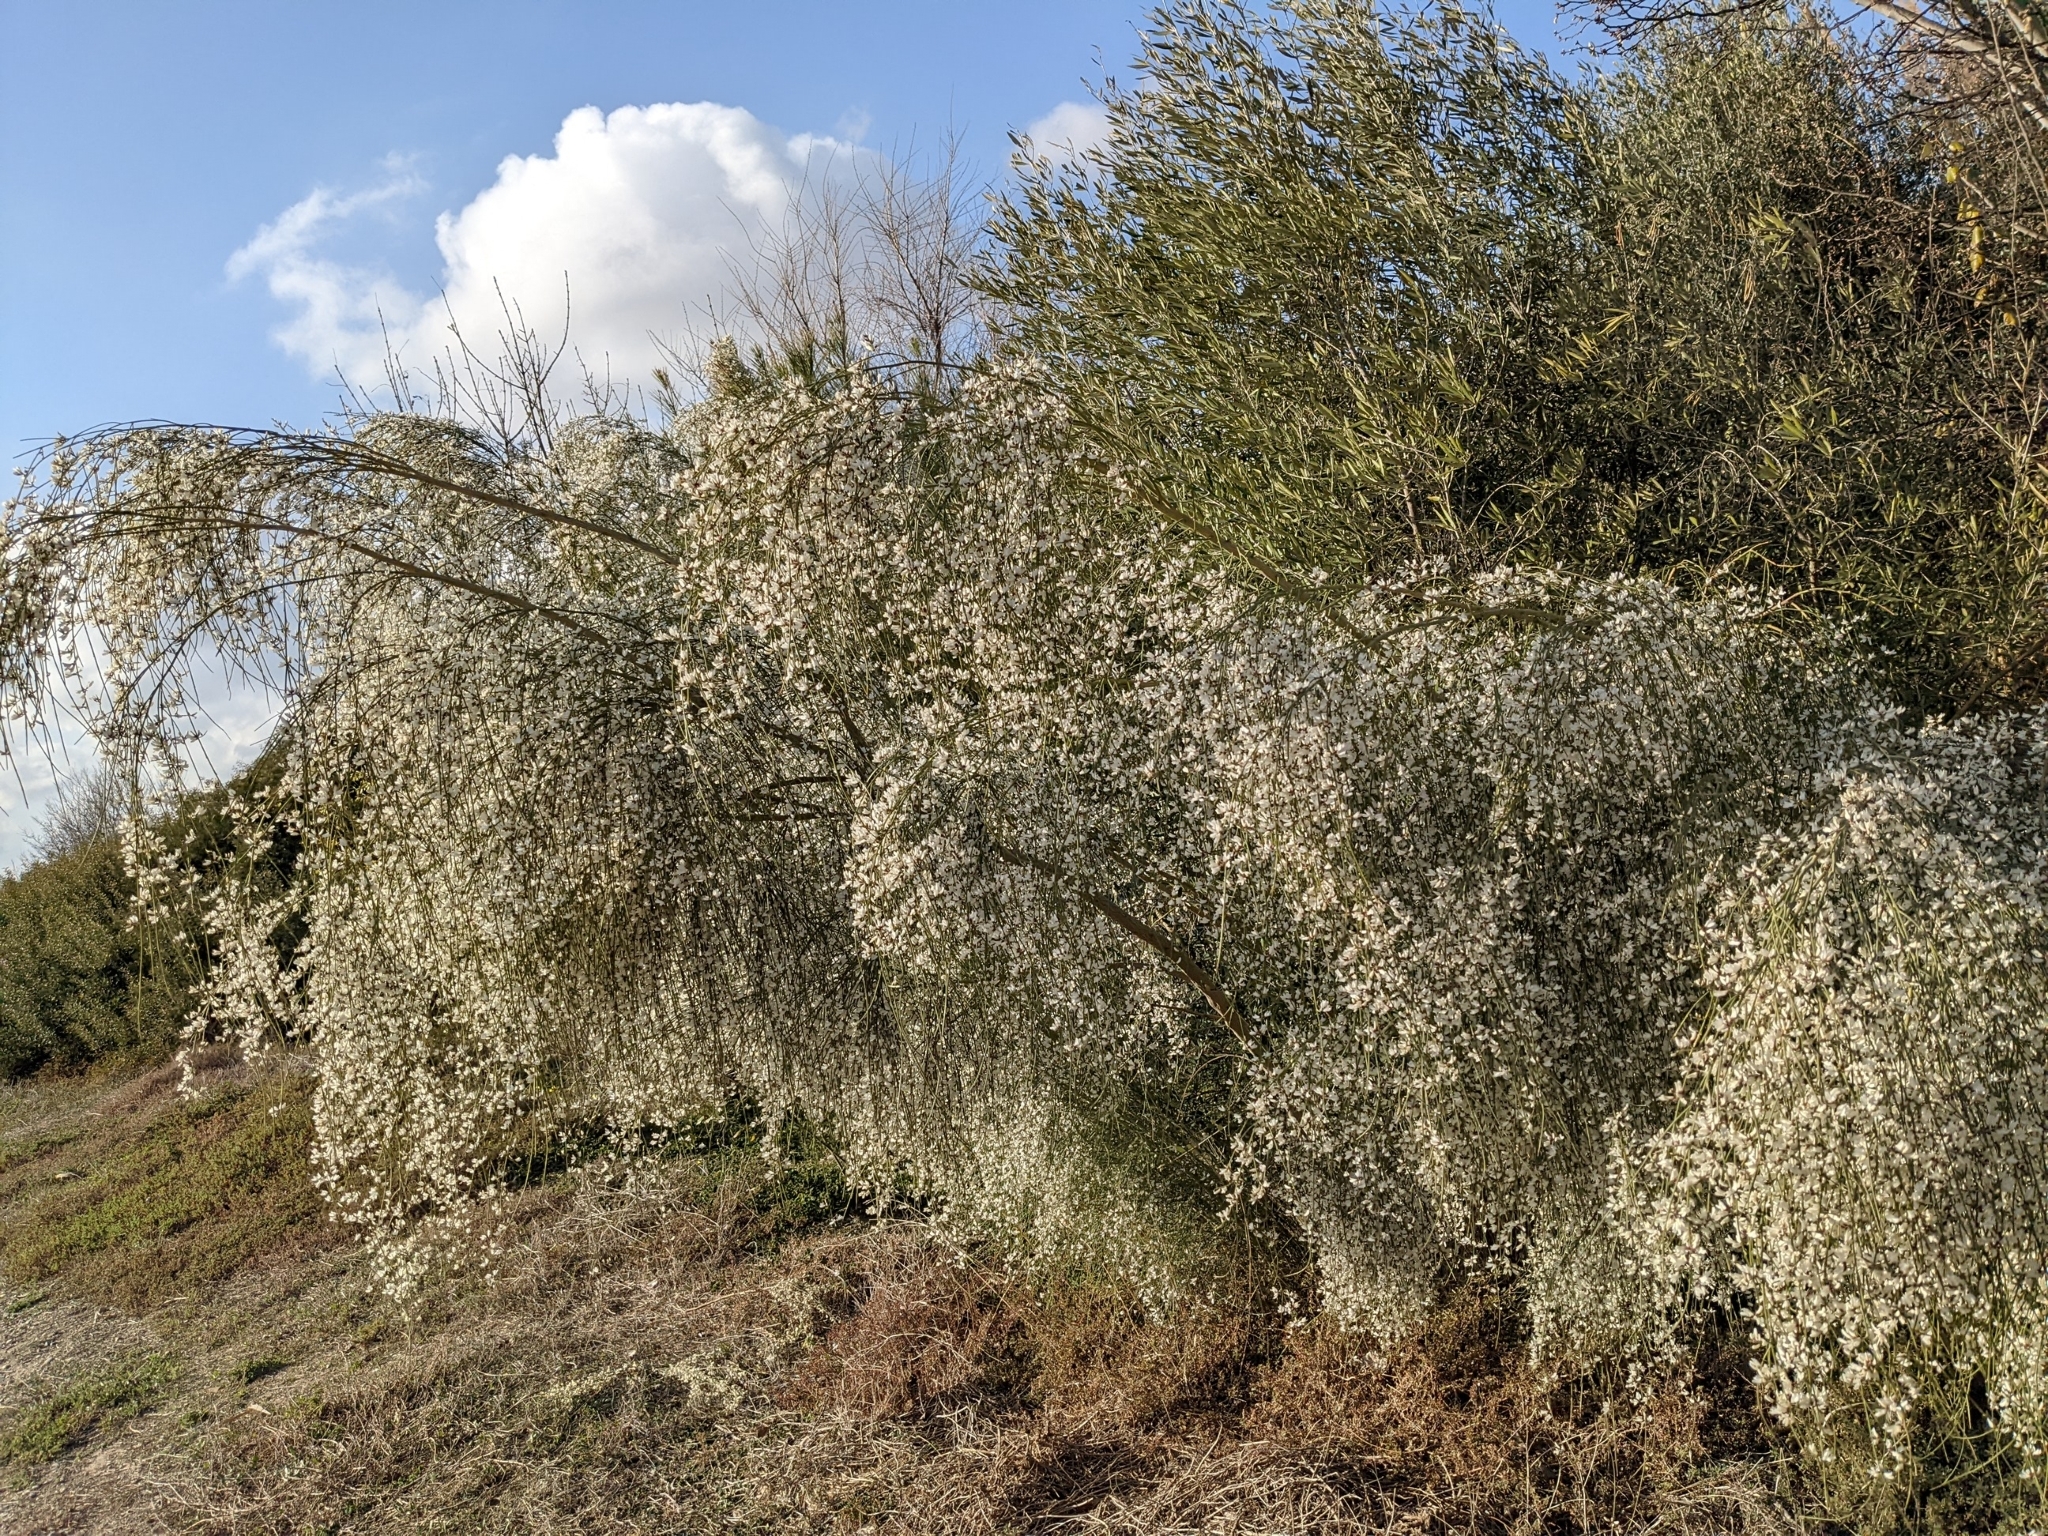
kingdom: Plantae
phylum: Tracheophyta
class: Magnoliopsida
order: Fabales
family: Fabaceae
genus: Retama
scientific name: Retama monosperma
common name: Bridal broom
